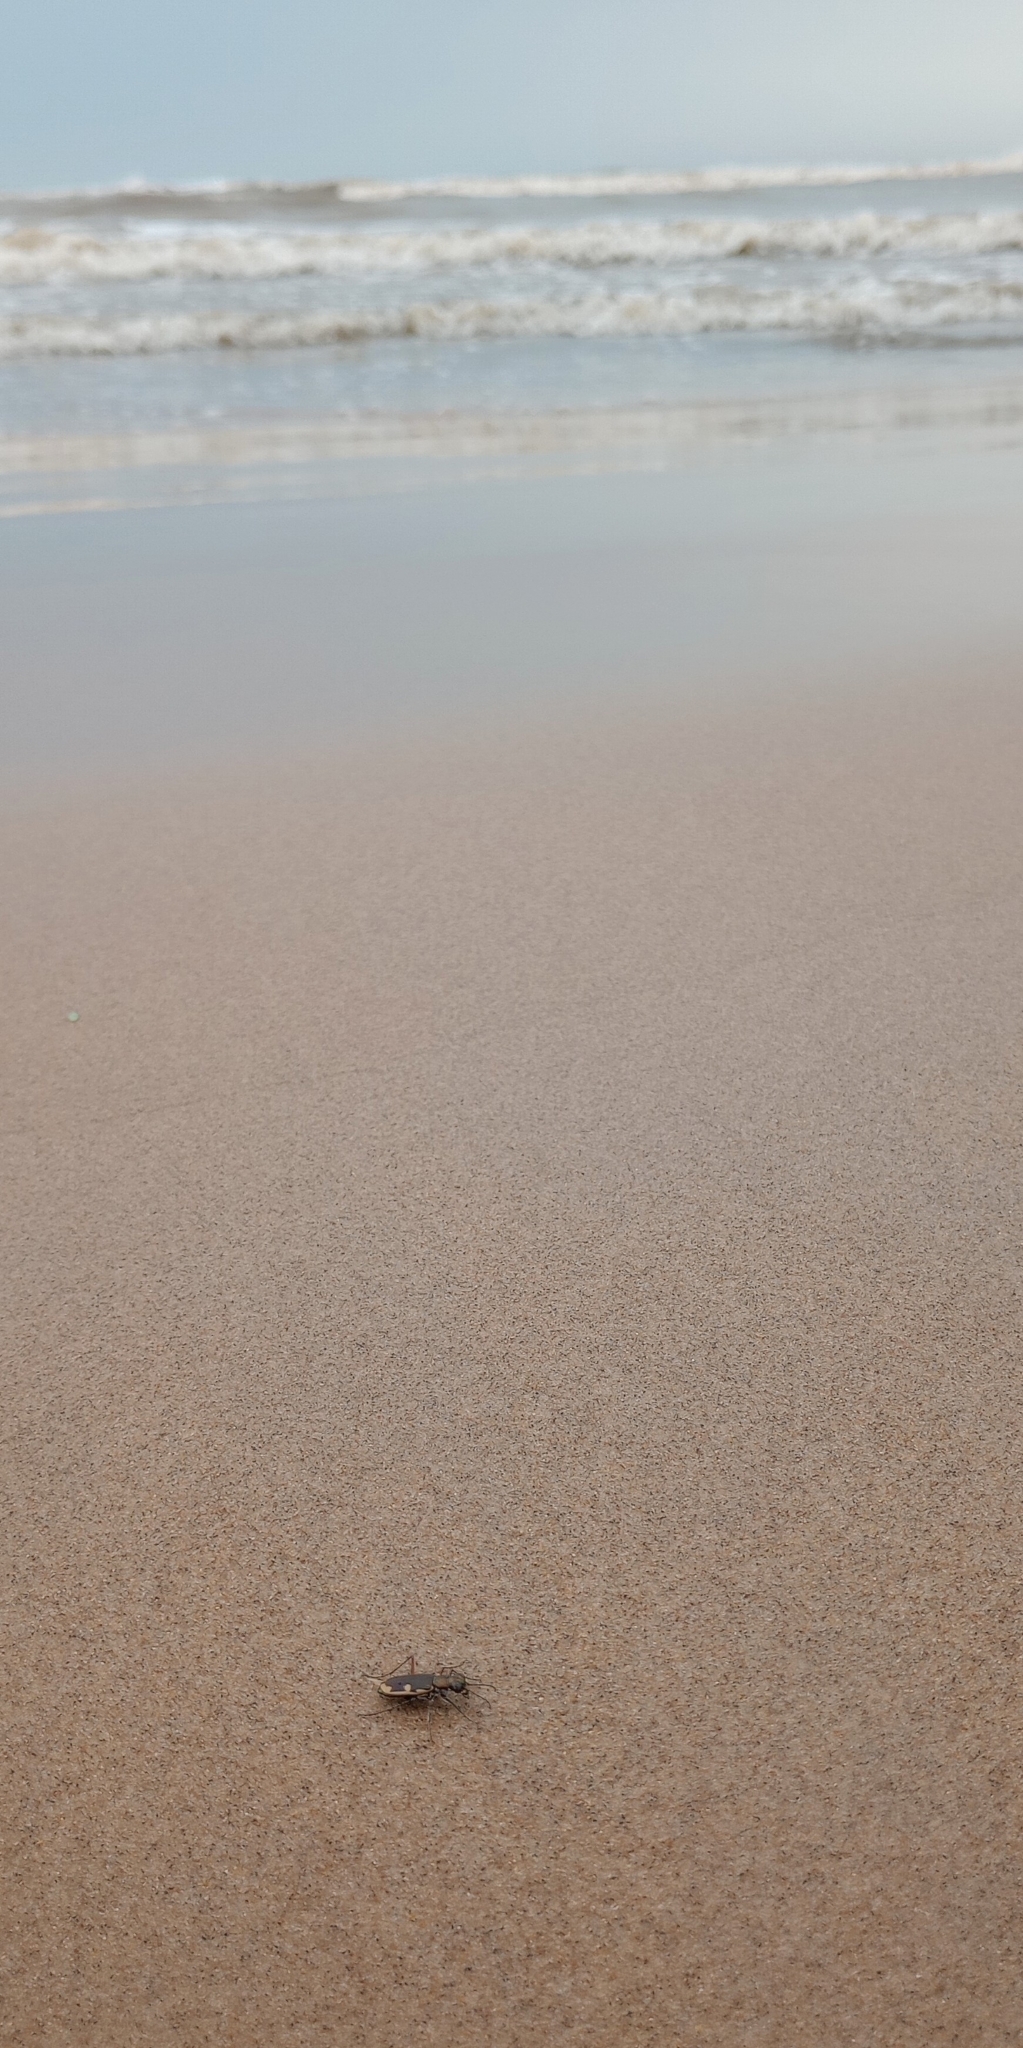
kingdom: Animalia
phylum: Arthropoda
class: Insecta
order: Coleoptera
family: Carabidae
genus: Hypaetha
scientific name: Hypaetha biramosa
